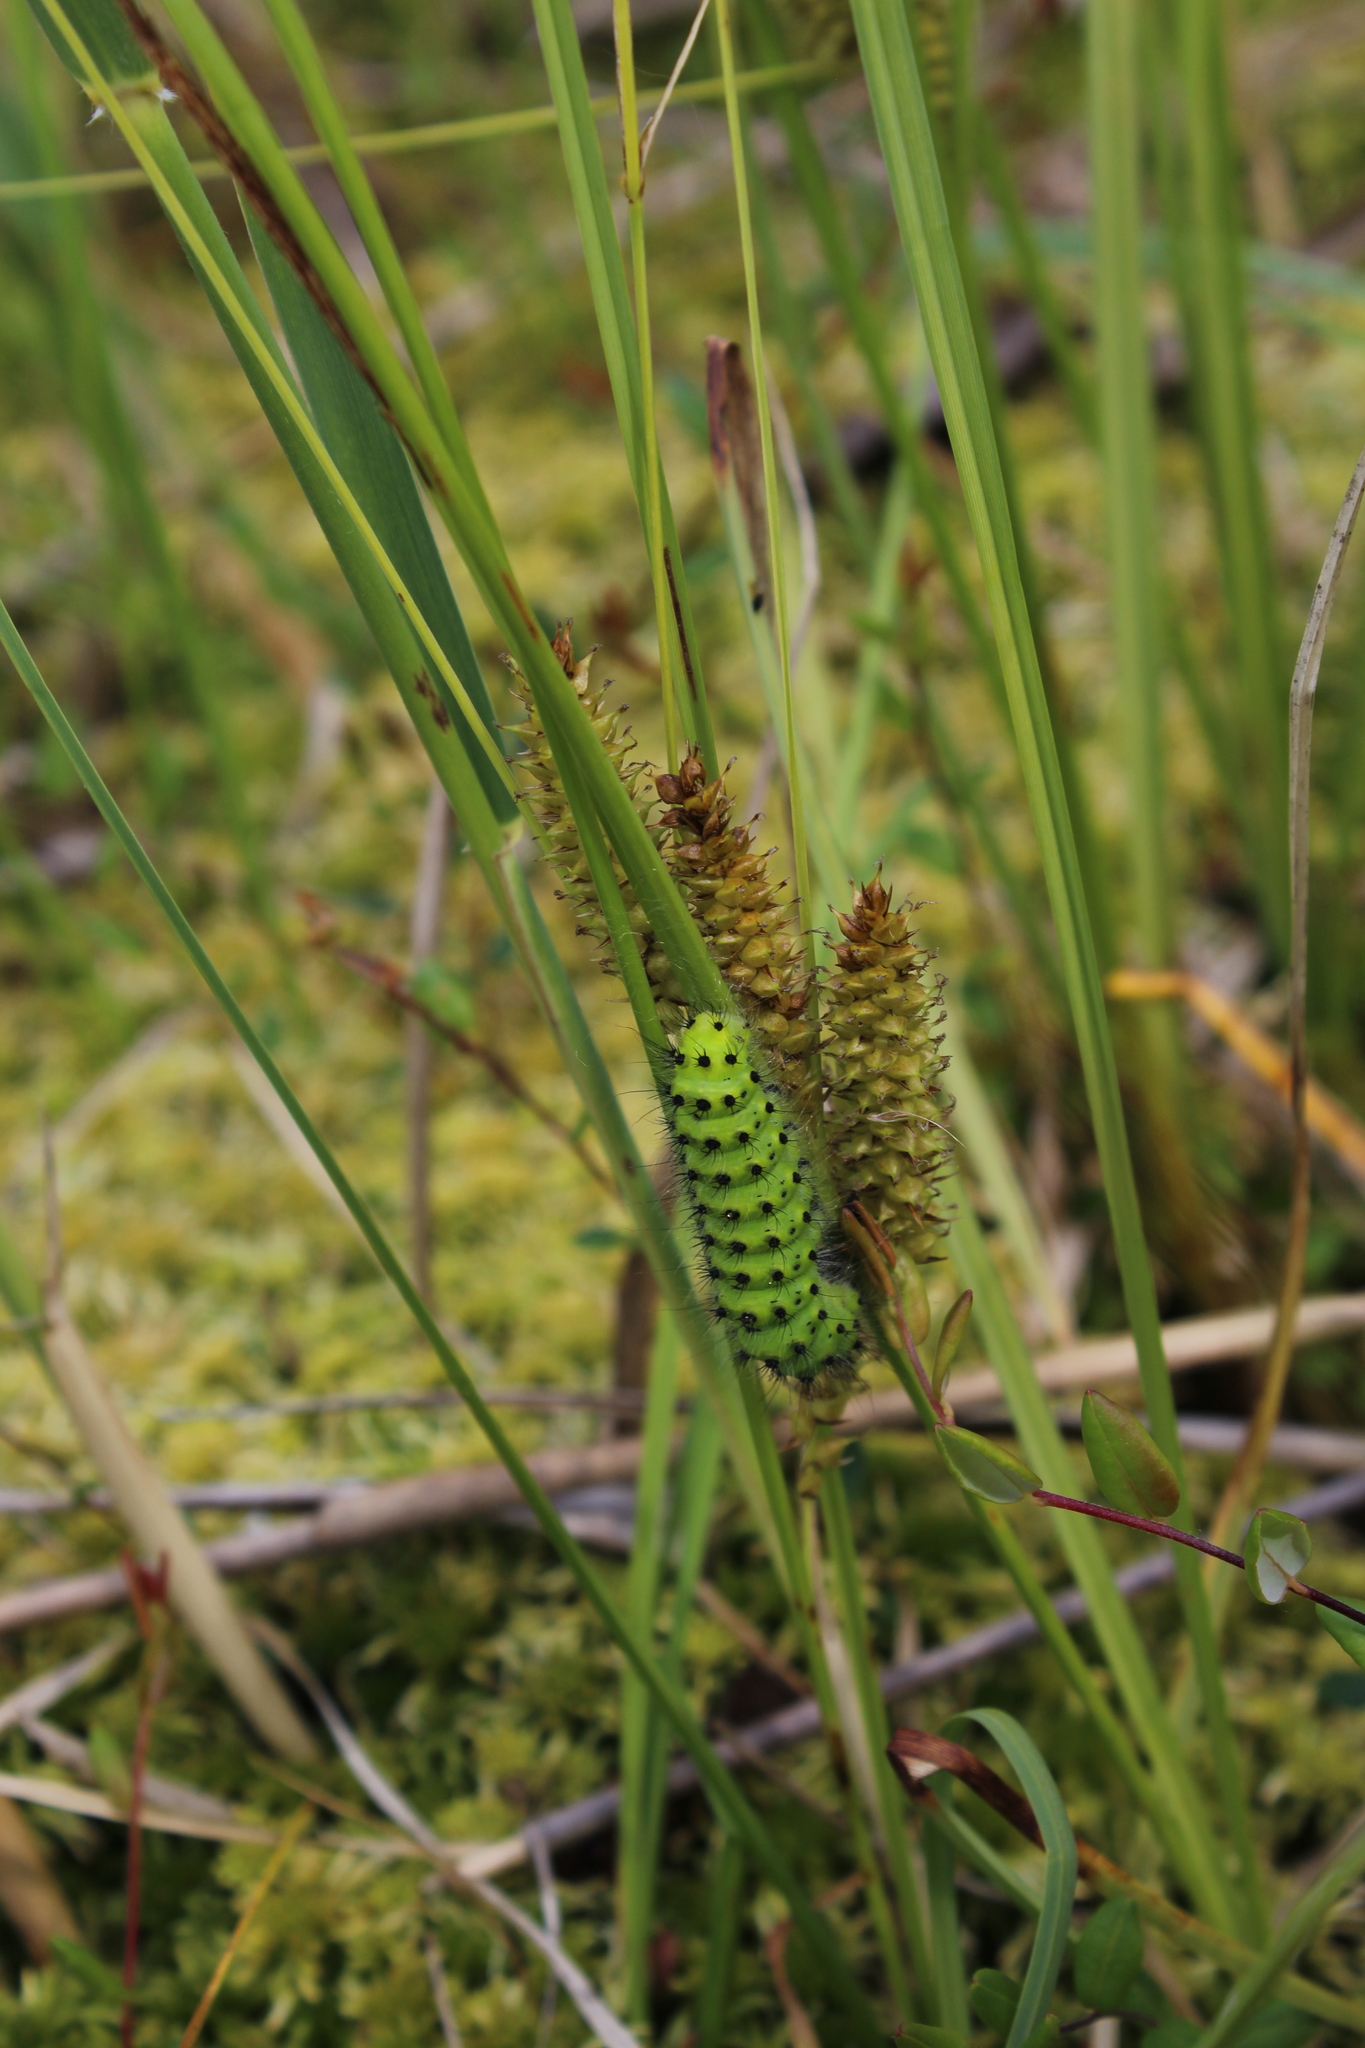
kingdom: Animalia
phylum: Arthropoda
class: Insecta
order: Lepidoptera
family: Saturniidae
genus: Saturnia
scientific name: Saturnia pavonia
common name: Emperor moth
